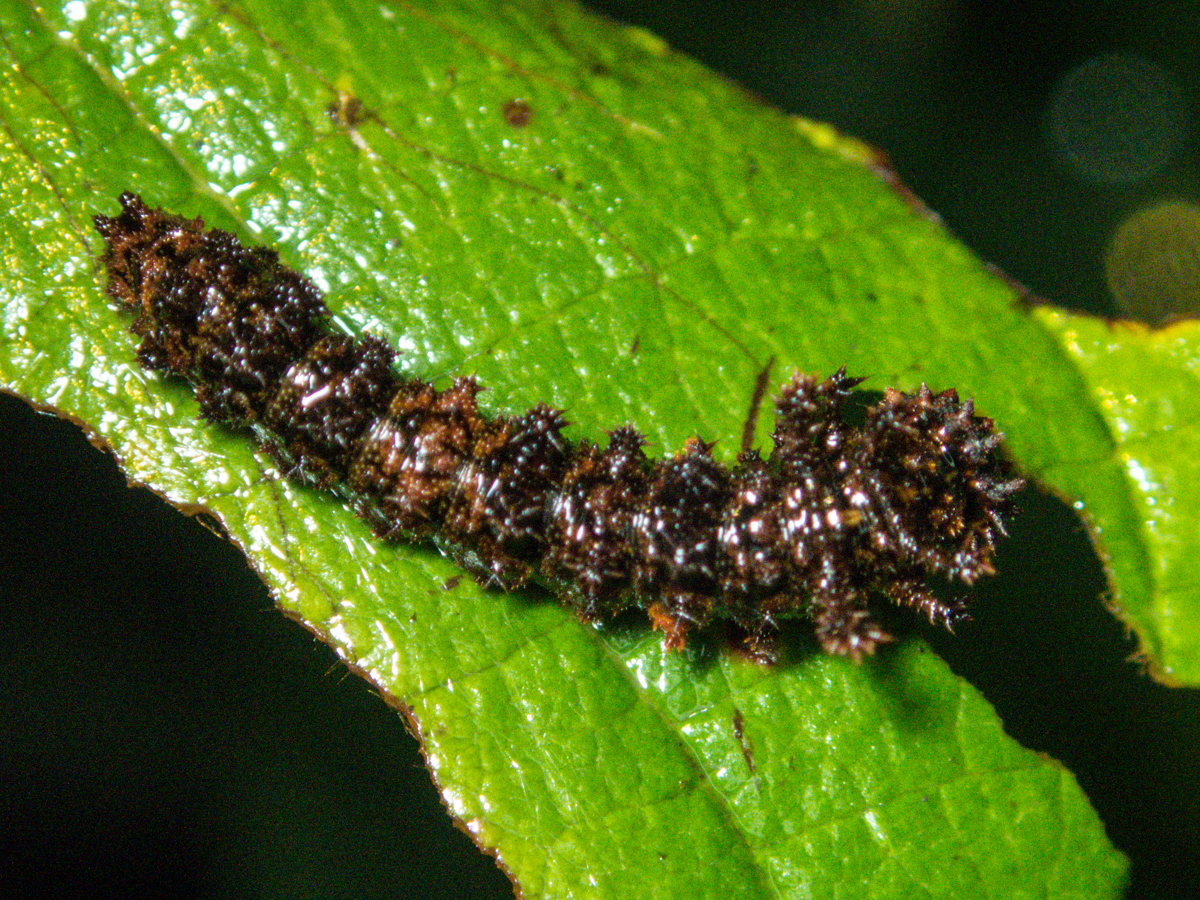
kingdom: Animalia
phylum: Arthropoda
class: Insecta
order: Lepidoptera
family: Nymphalidae
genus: Limenitis
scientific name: Limenitis Moduza procris
